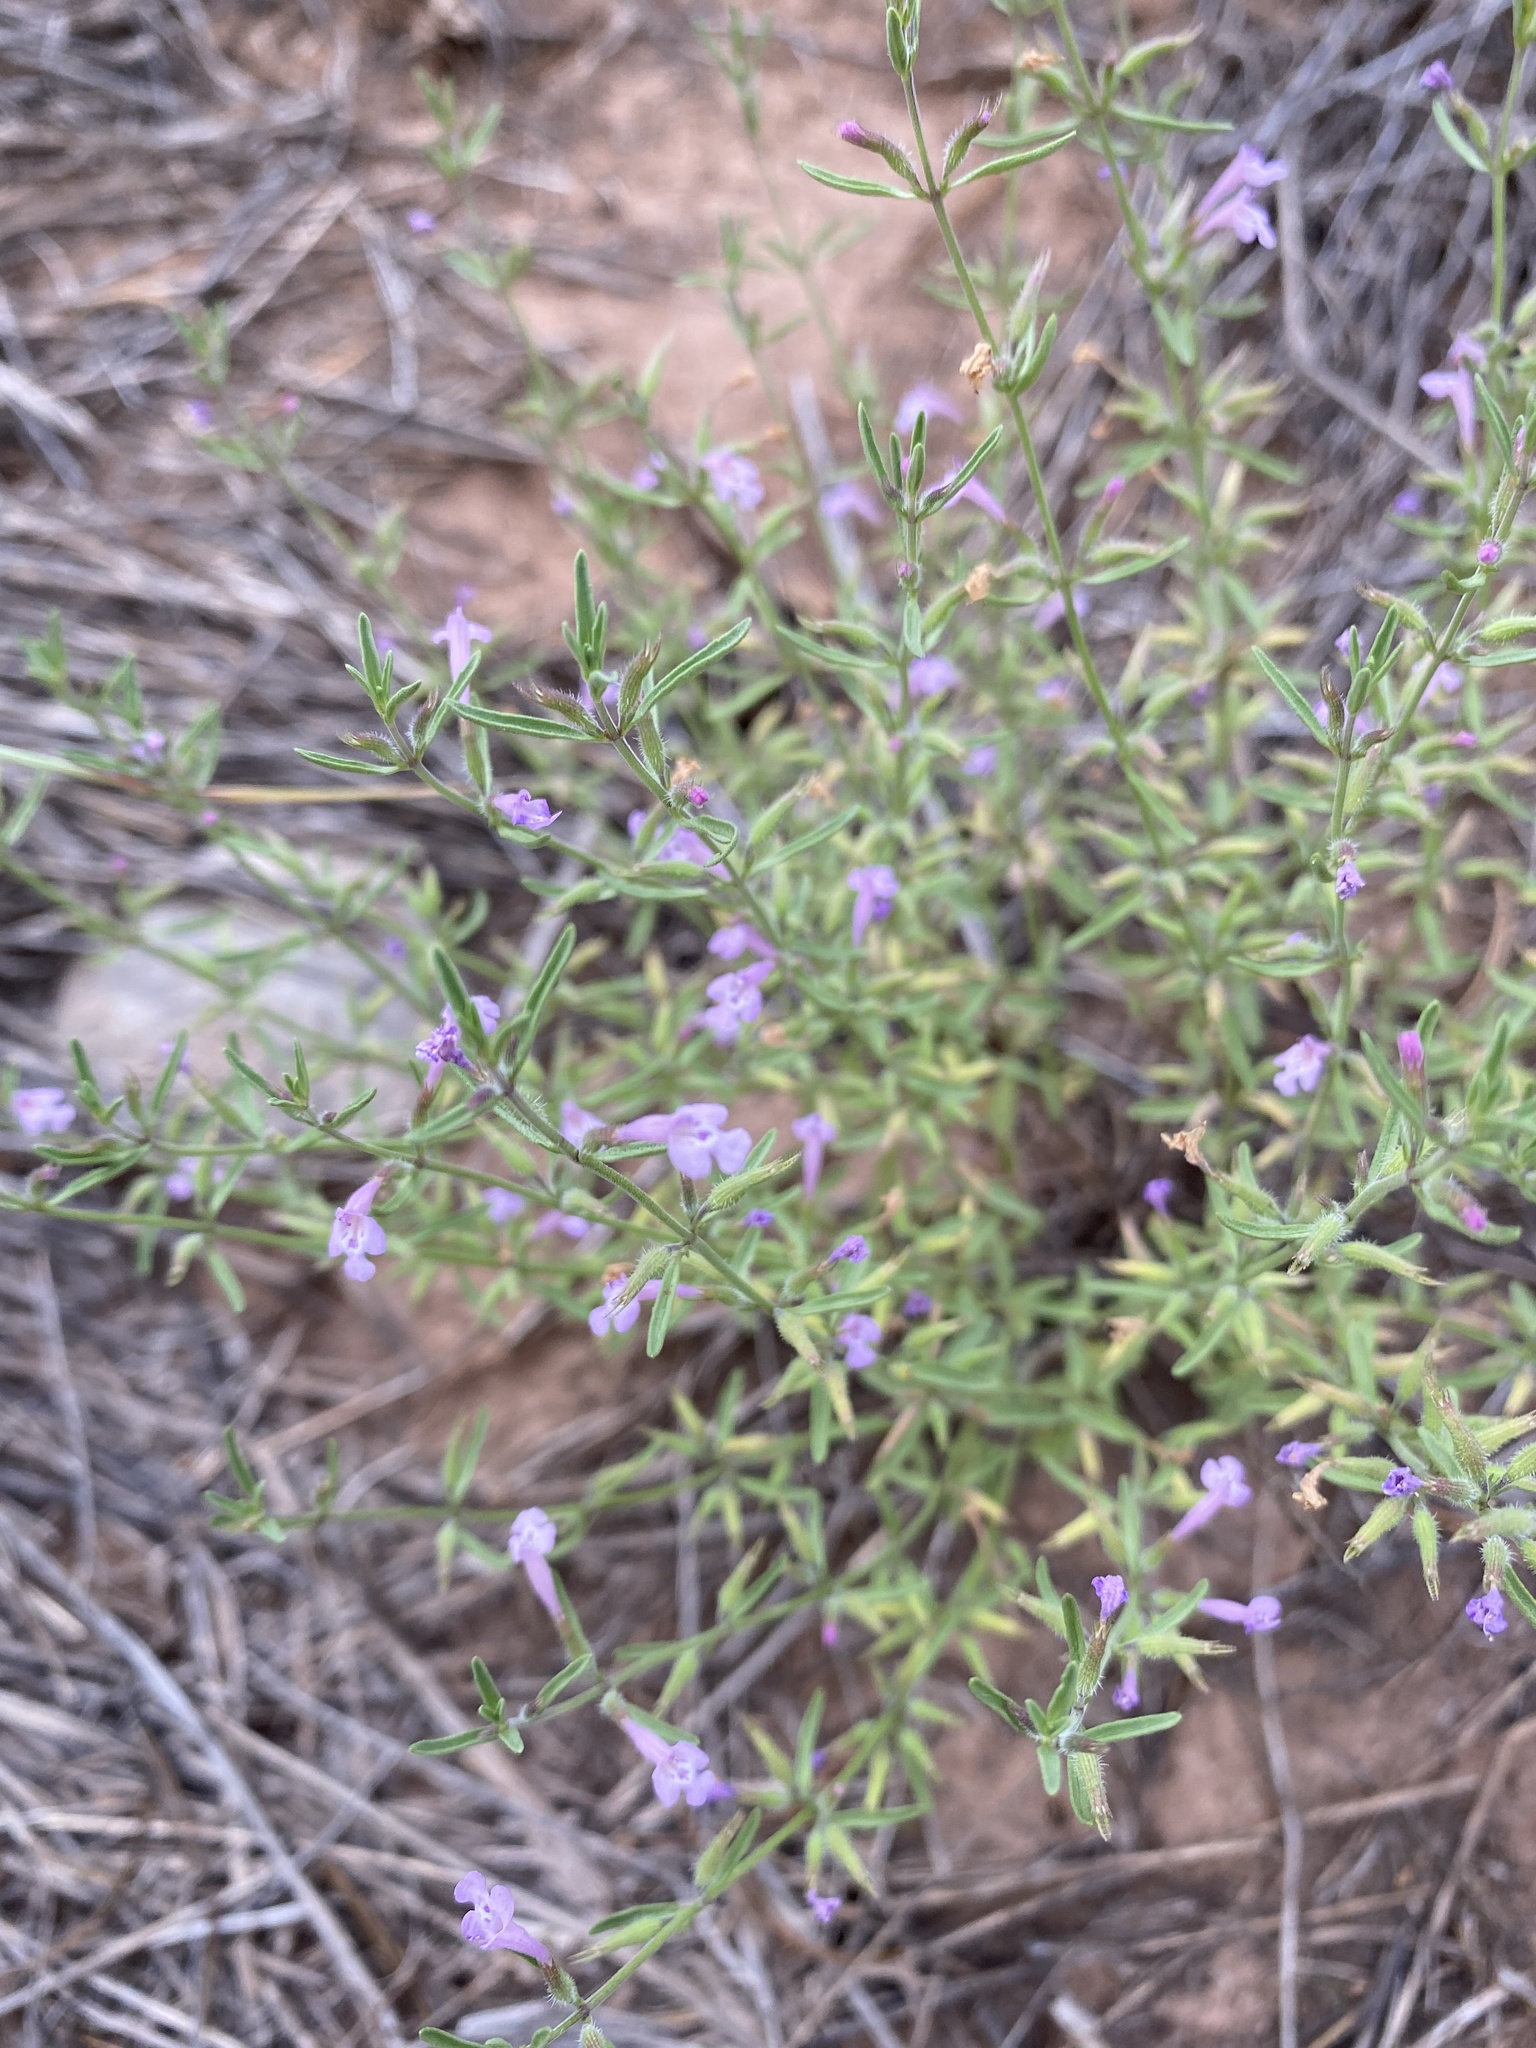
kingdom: Plantae
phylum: Tracheophyta
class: Magnoliopsida
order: Lamiales
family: Lamiaceae
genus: Hedeoma
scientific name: Hedeoma drummondii
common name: New mexico pennyroyal
